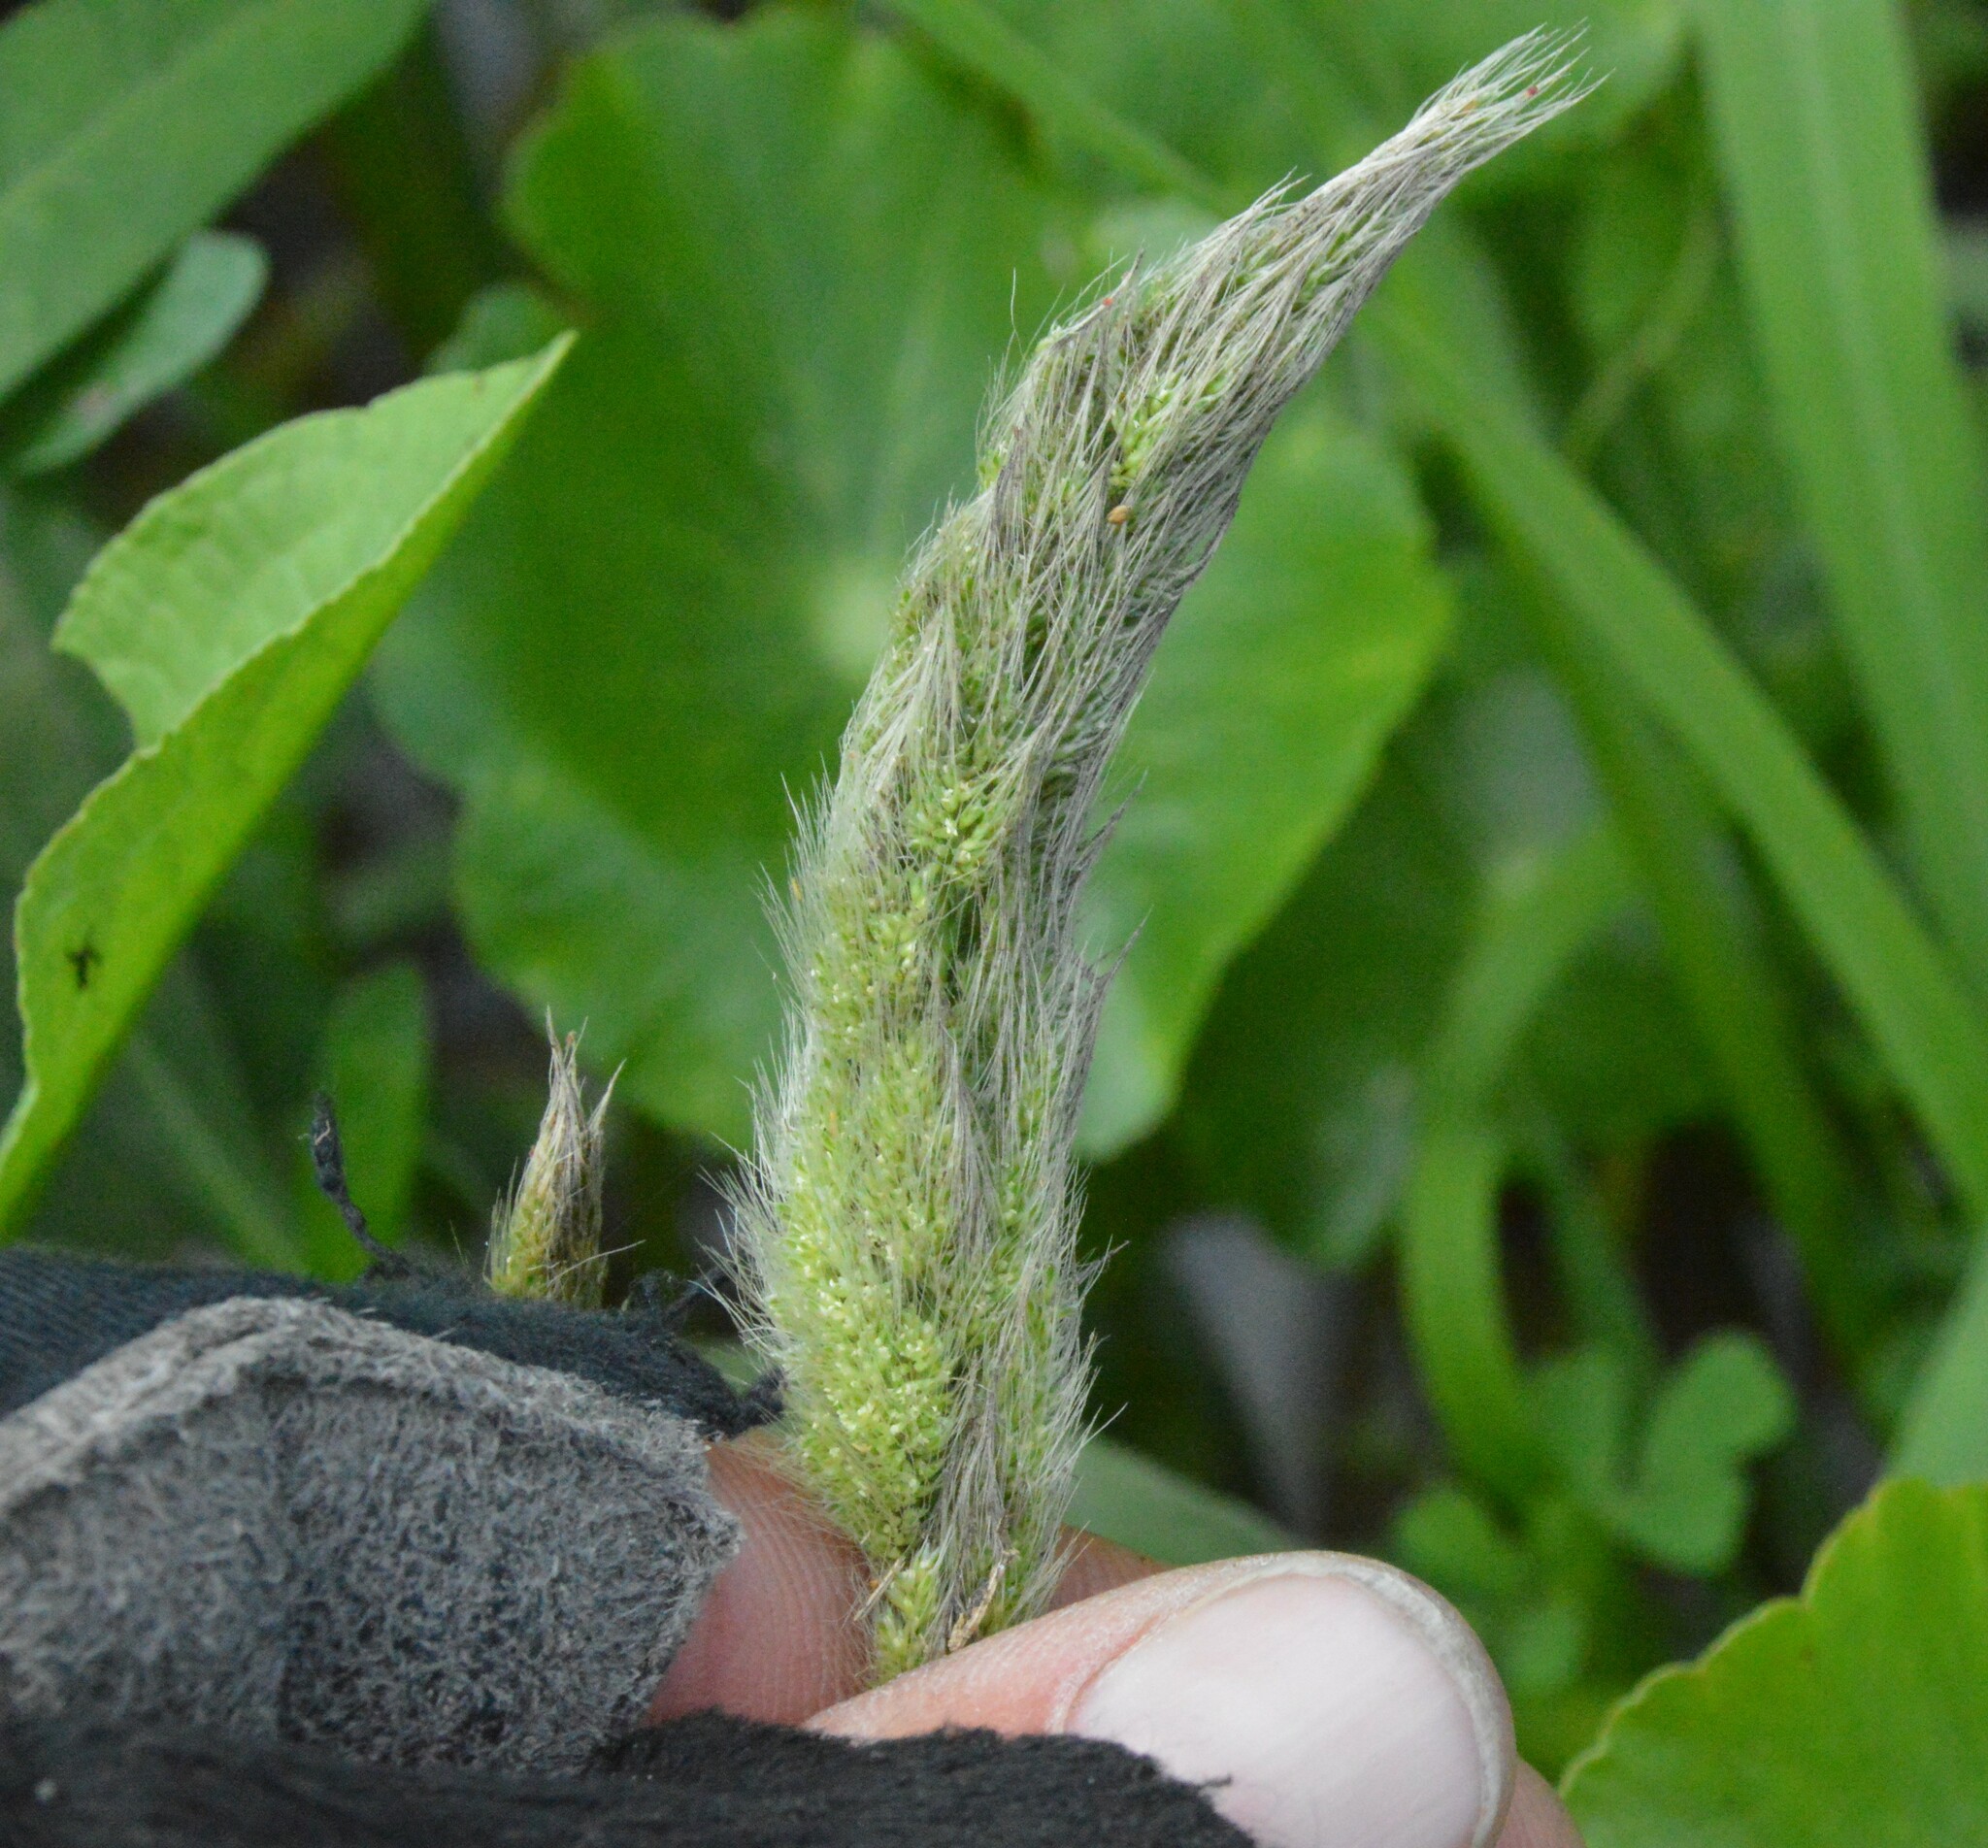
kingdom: Plantae
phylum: Tracheophyta
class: Liliopsida
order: Poales
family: Poaceae
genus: Polypogon
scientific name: Polypogon monspeliensis
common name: Annual rabbitsfoot grass
